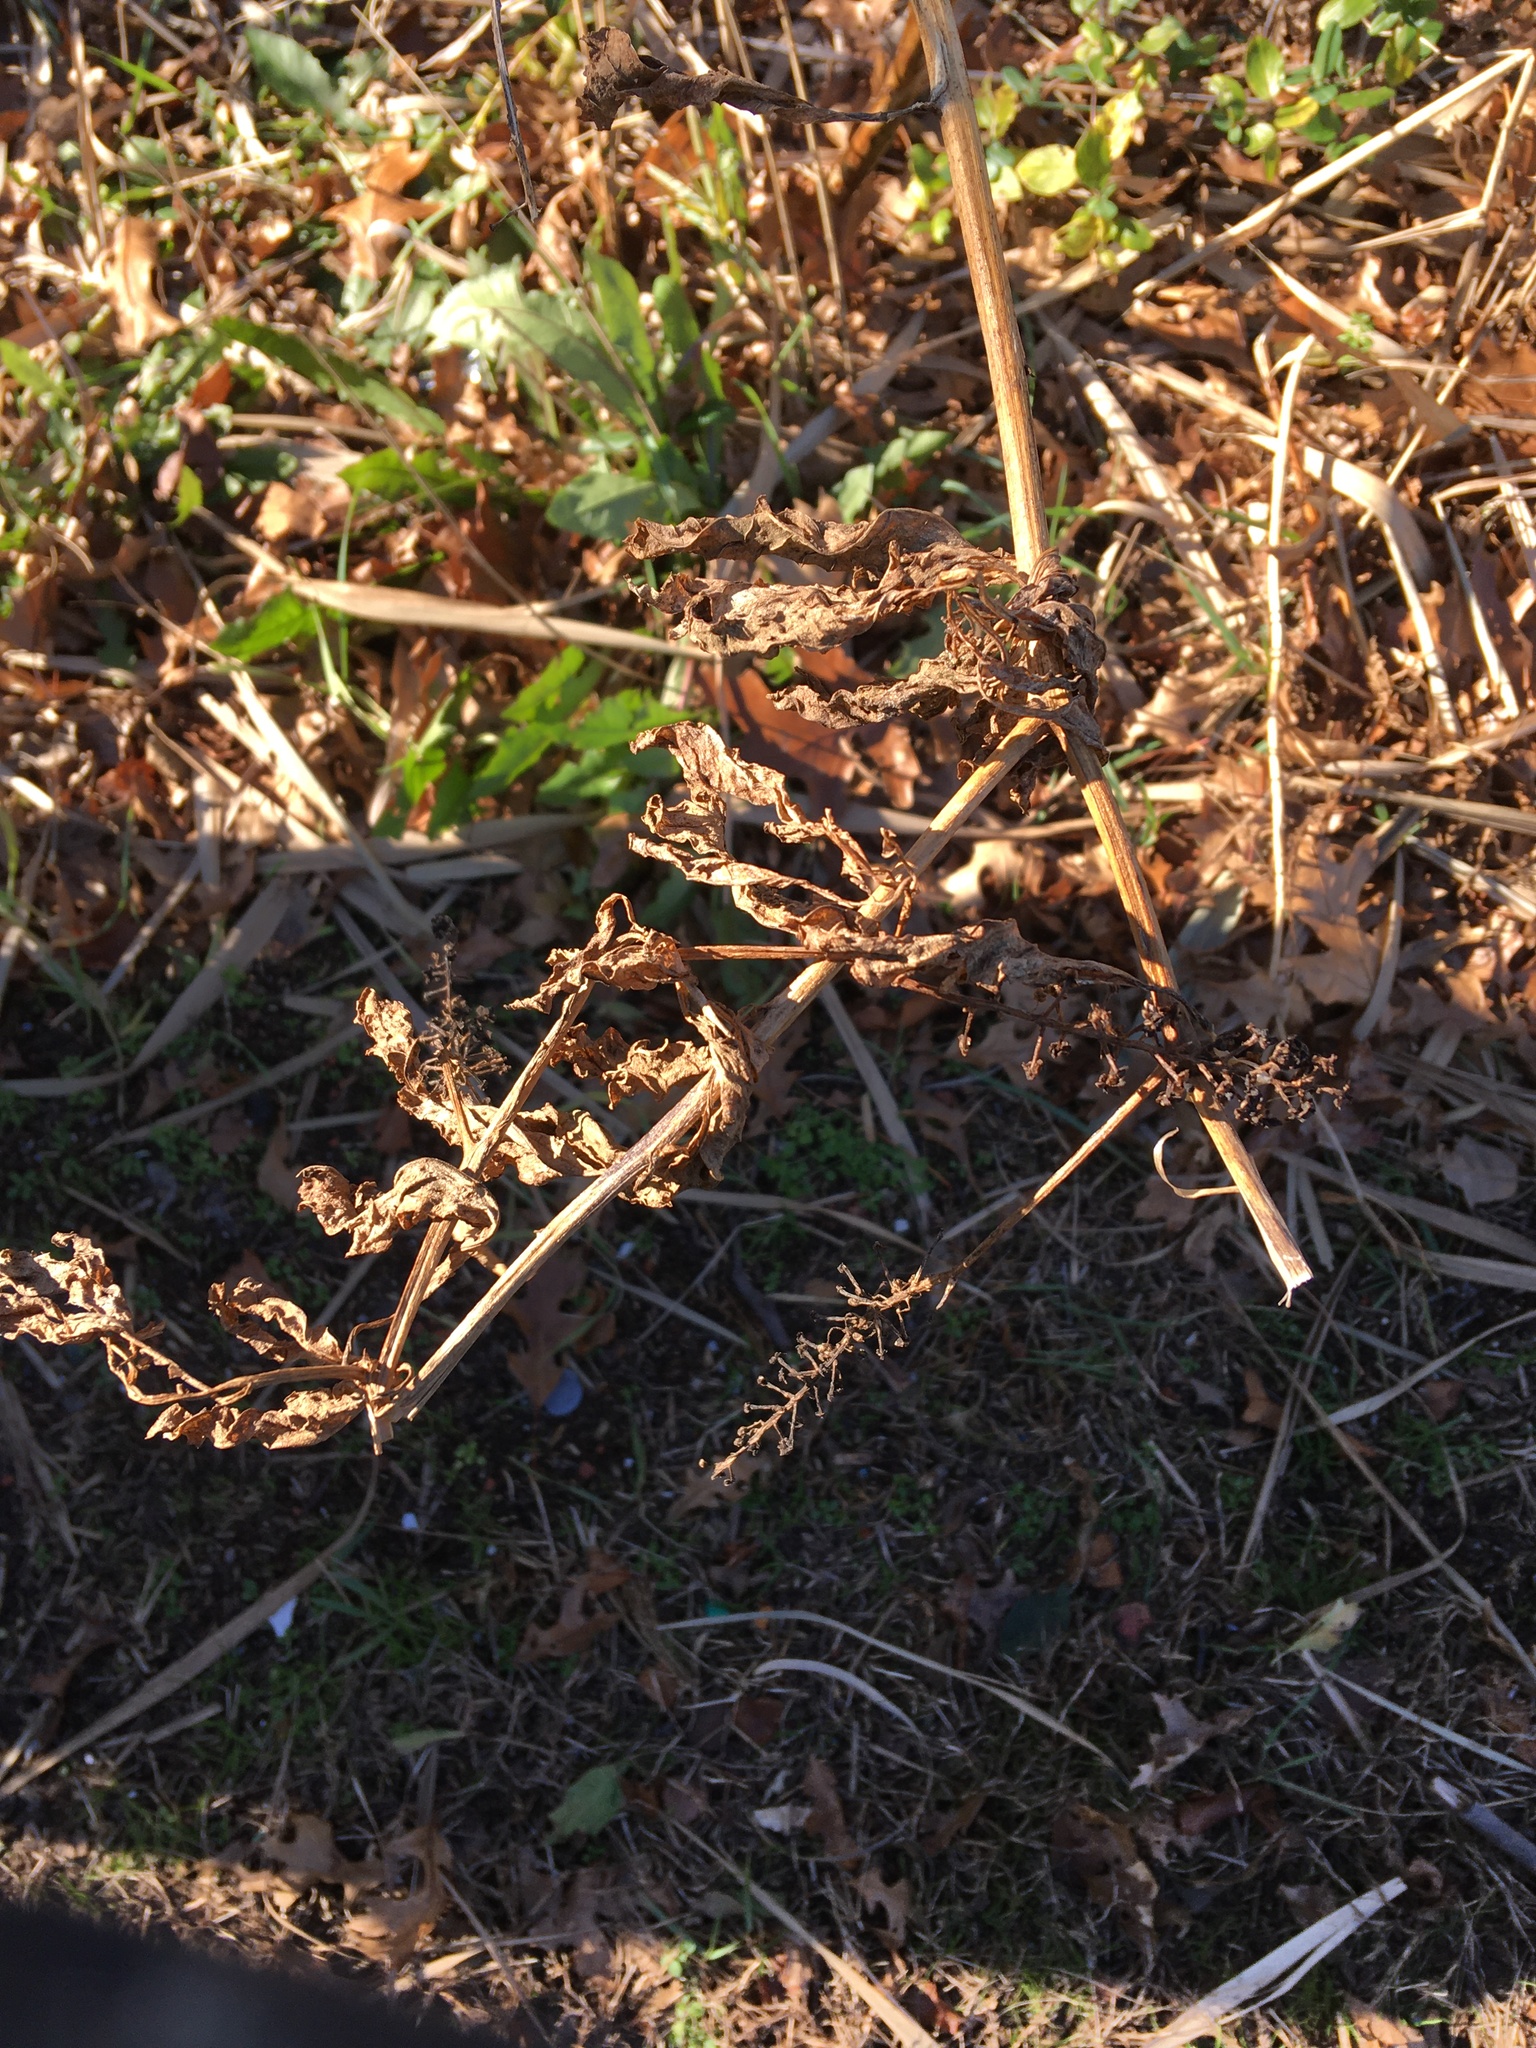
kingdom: Plantae
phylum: Tracheophyta
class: Magnoliopsida
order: Caryophyllales
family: Phytolaccaceae
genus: Phytolacca
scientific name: Phytolacca americana
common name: American pokeweed
